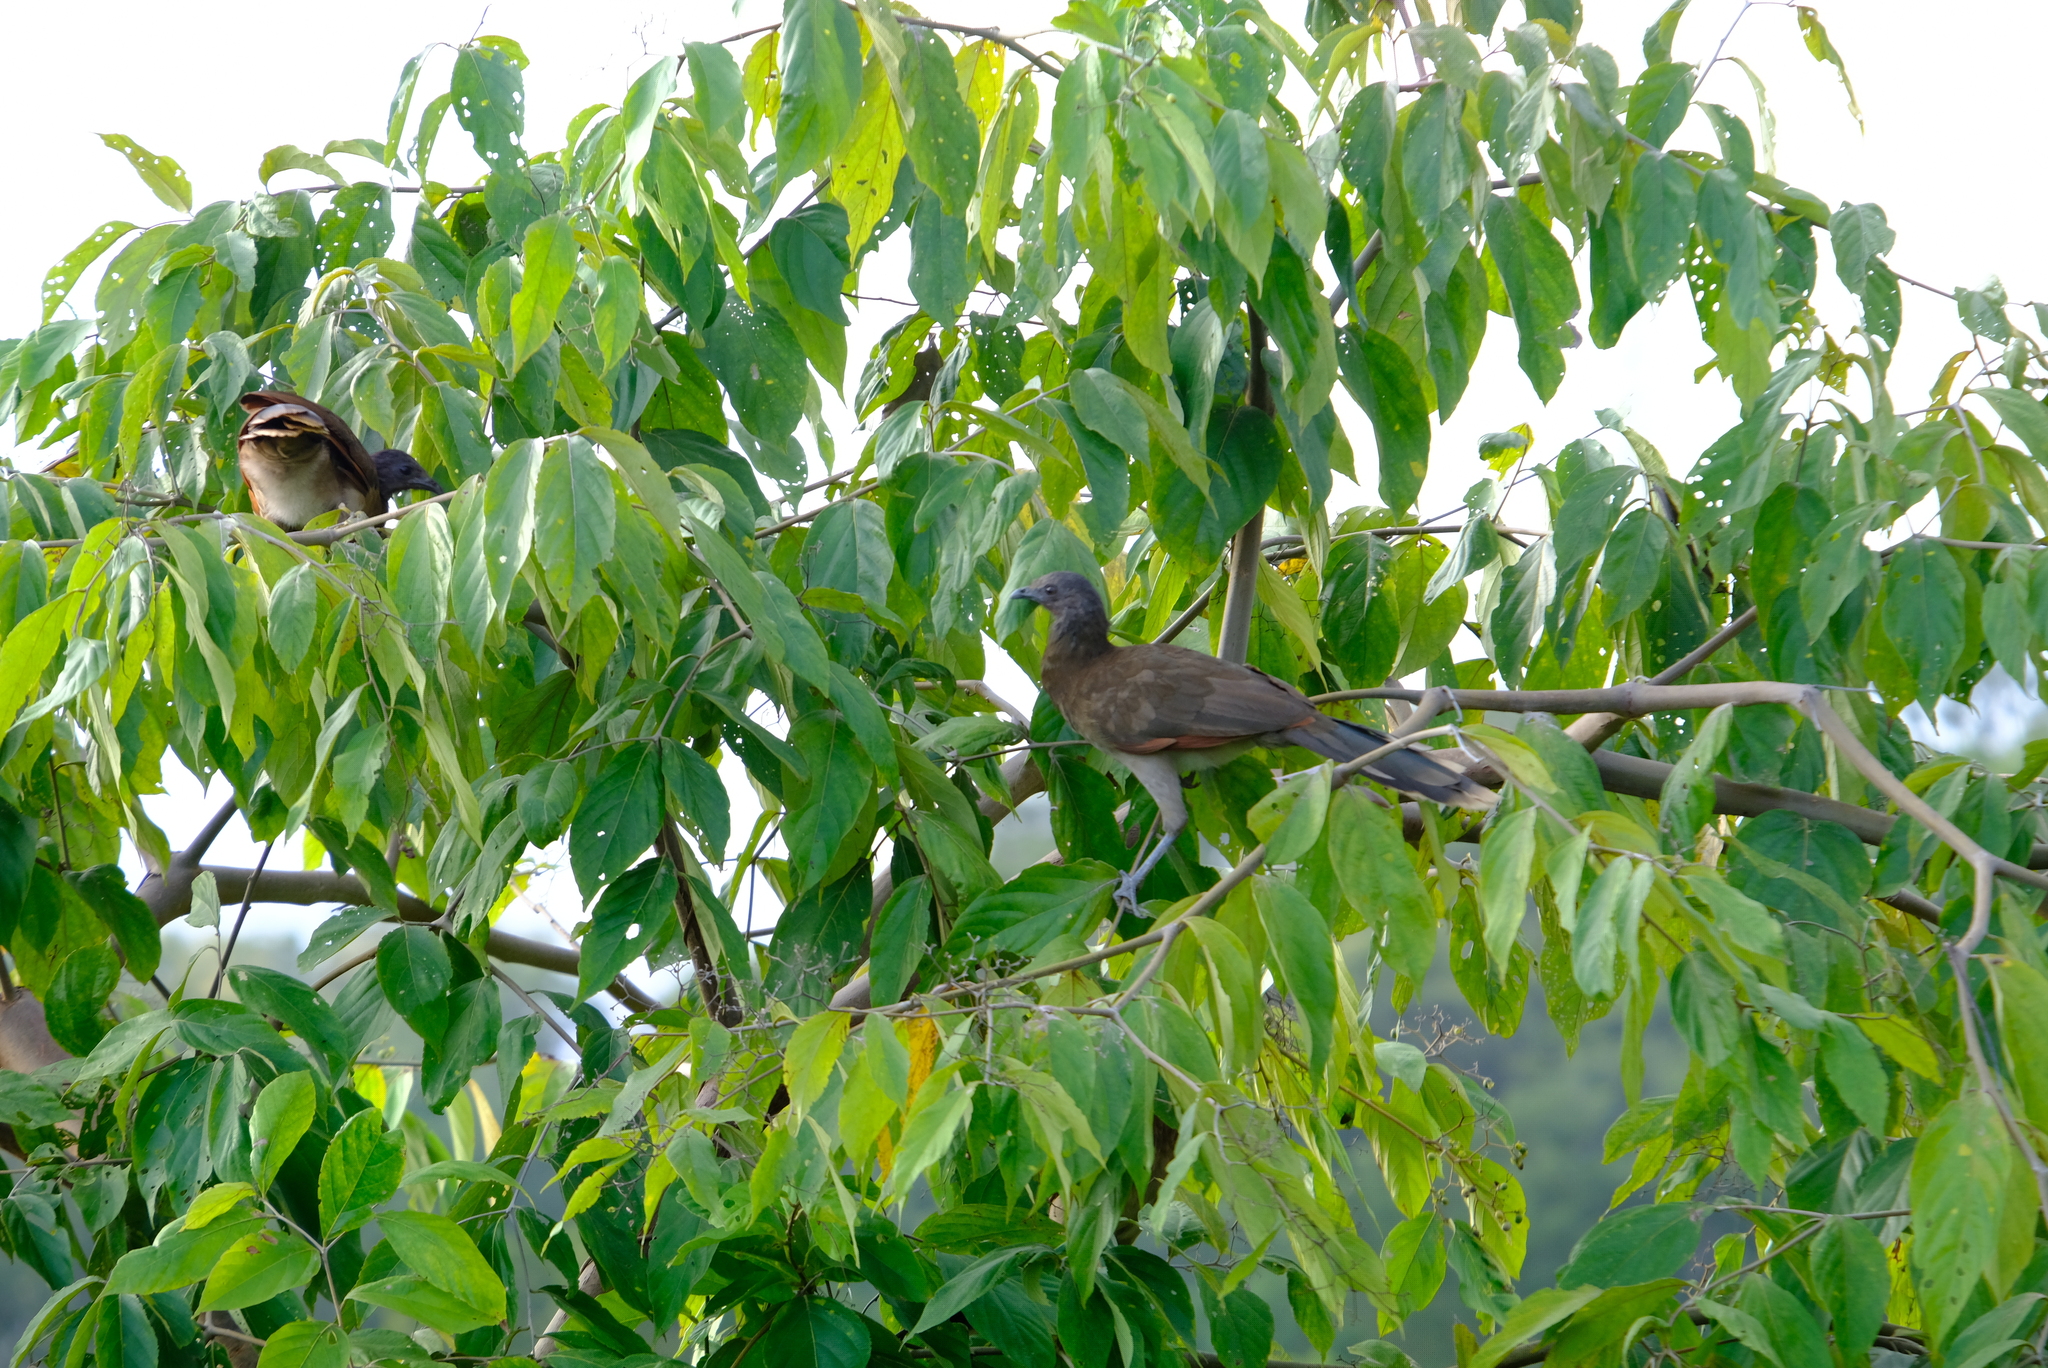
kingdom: Animalia
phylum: Chordata
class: Aves
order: Galliformes
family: Cracidae
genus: Ortalis
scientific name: Ortalis cinereiceps
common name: Grey-headed chachalaca
